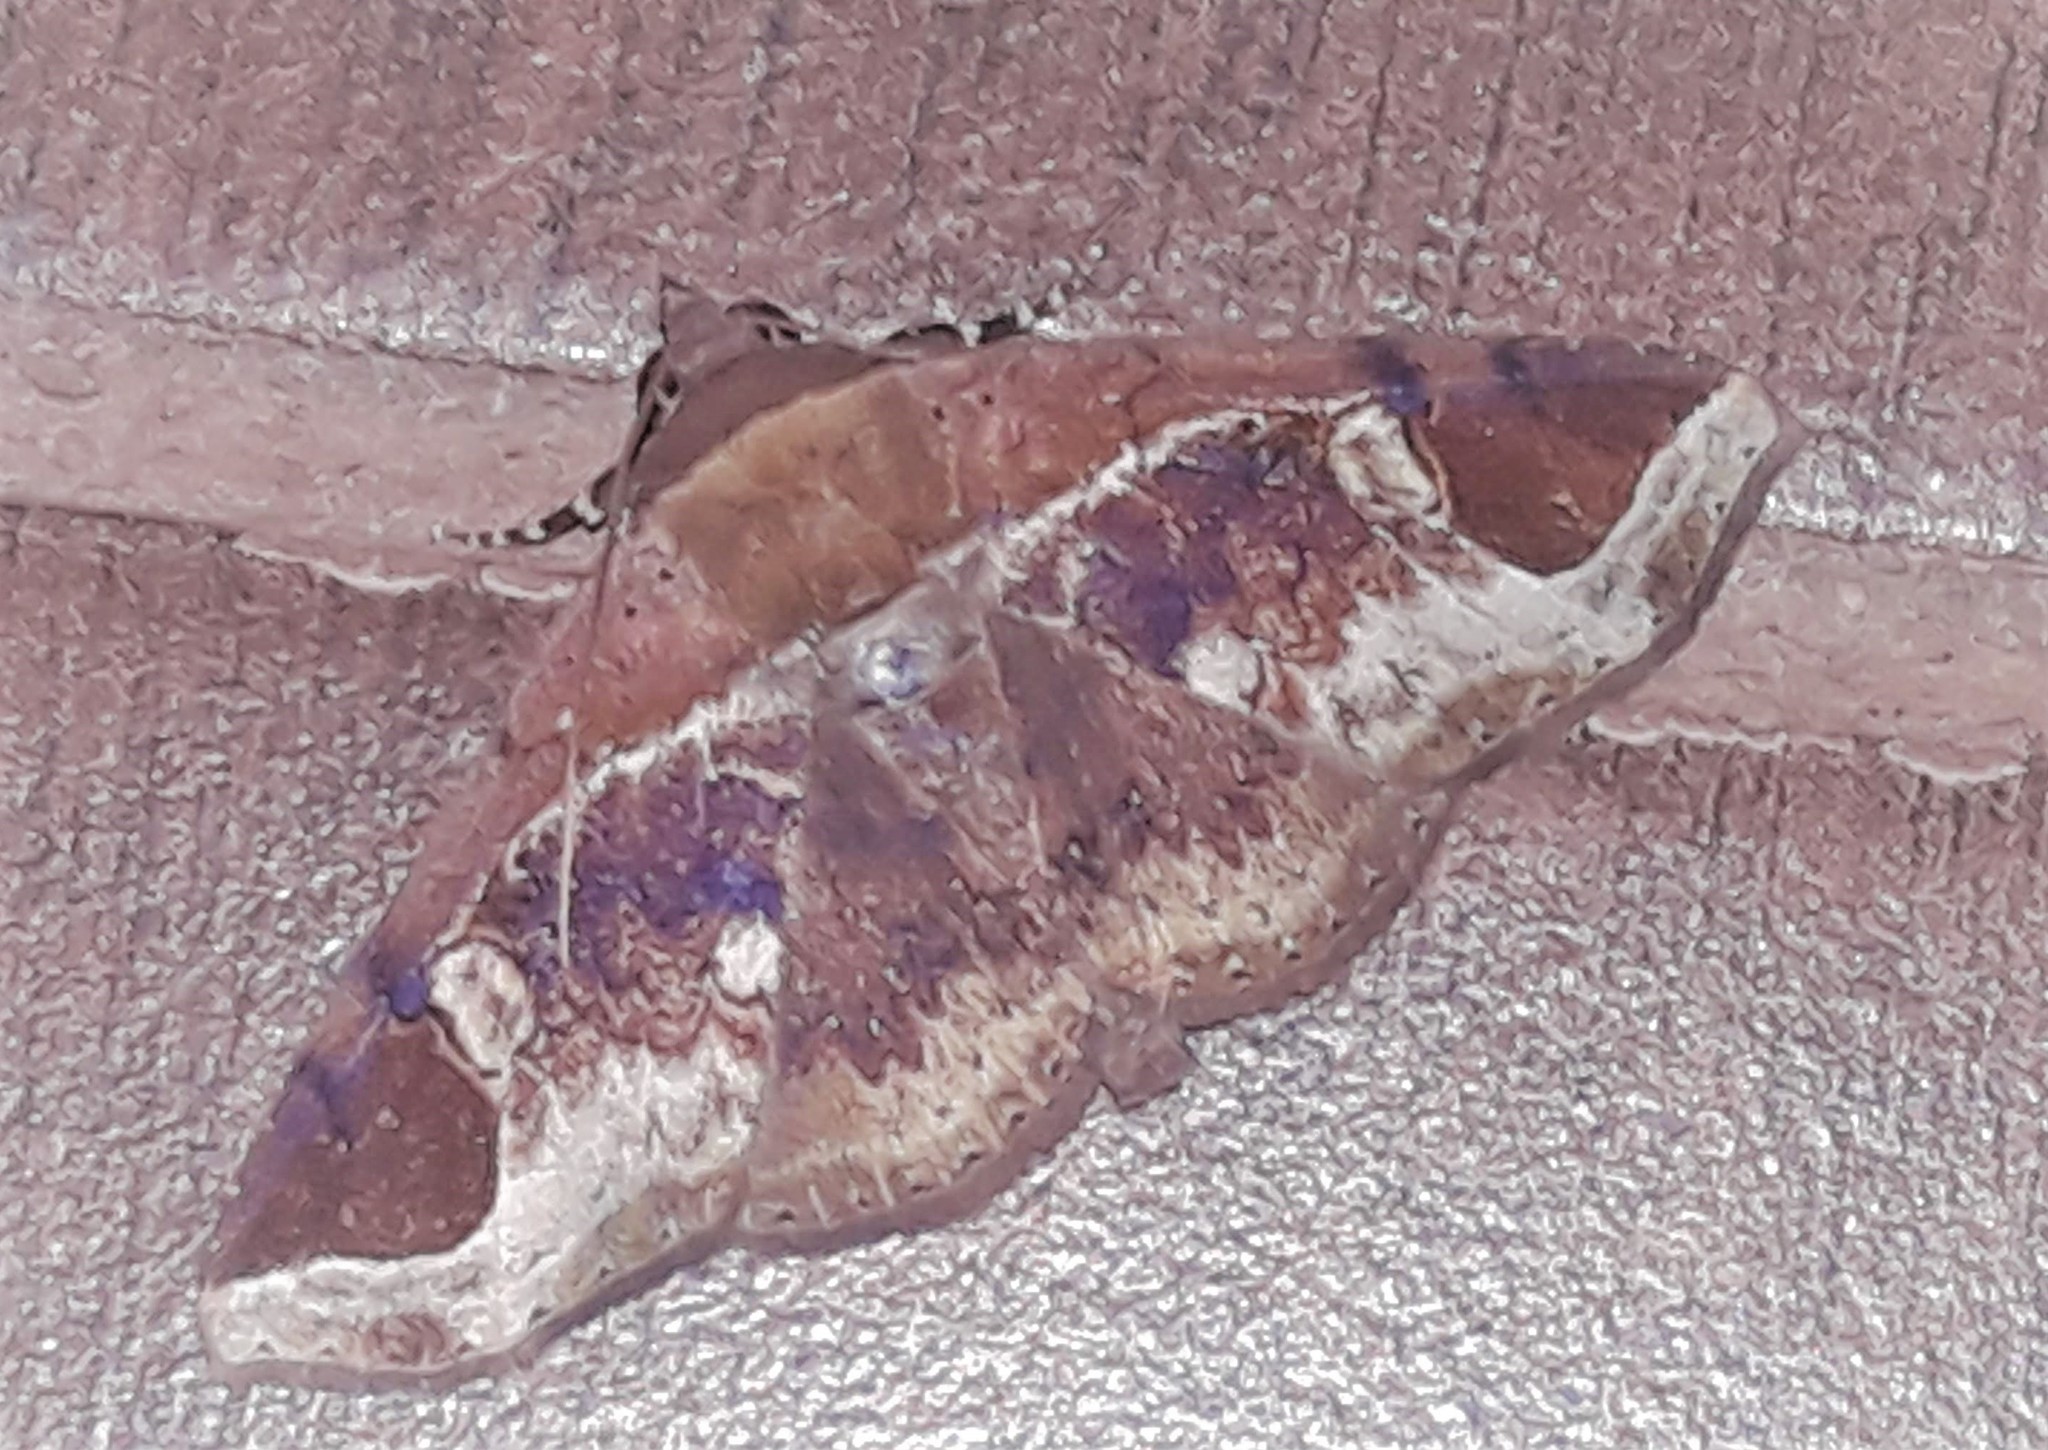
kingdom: Animalia
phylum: Arthropoda
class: Insecta
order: Lepidoptera
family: Erebidae
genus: Massala
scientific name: Massala obvertens
